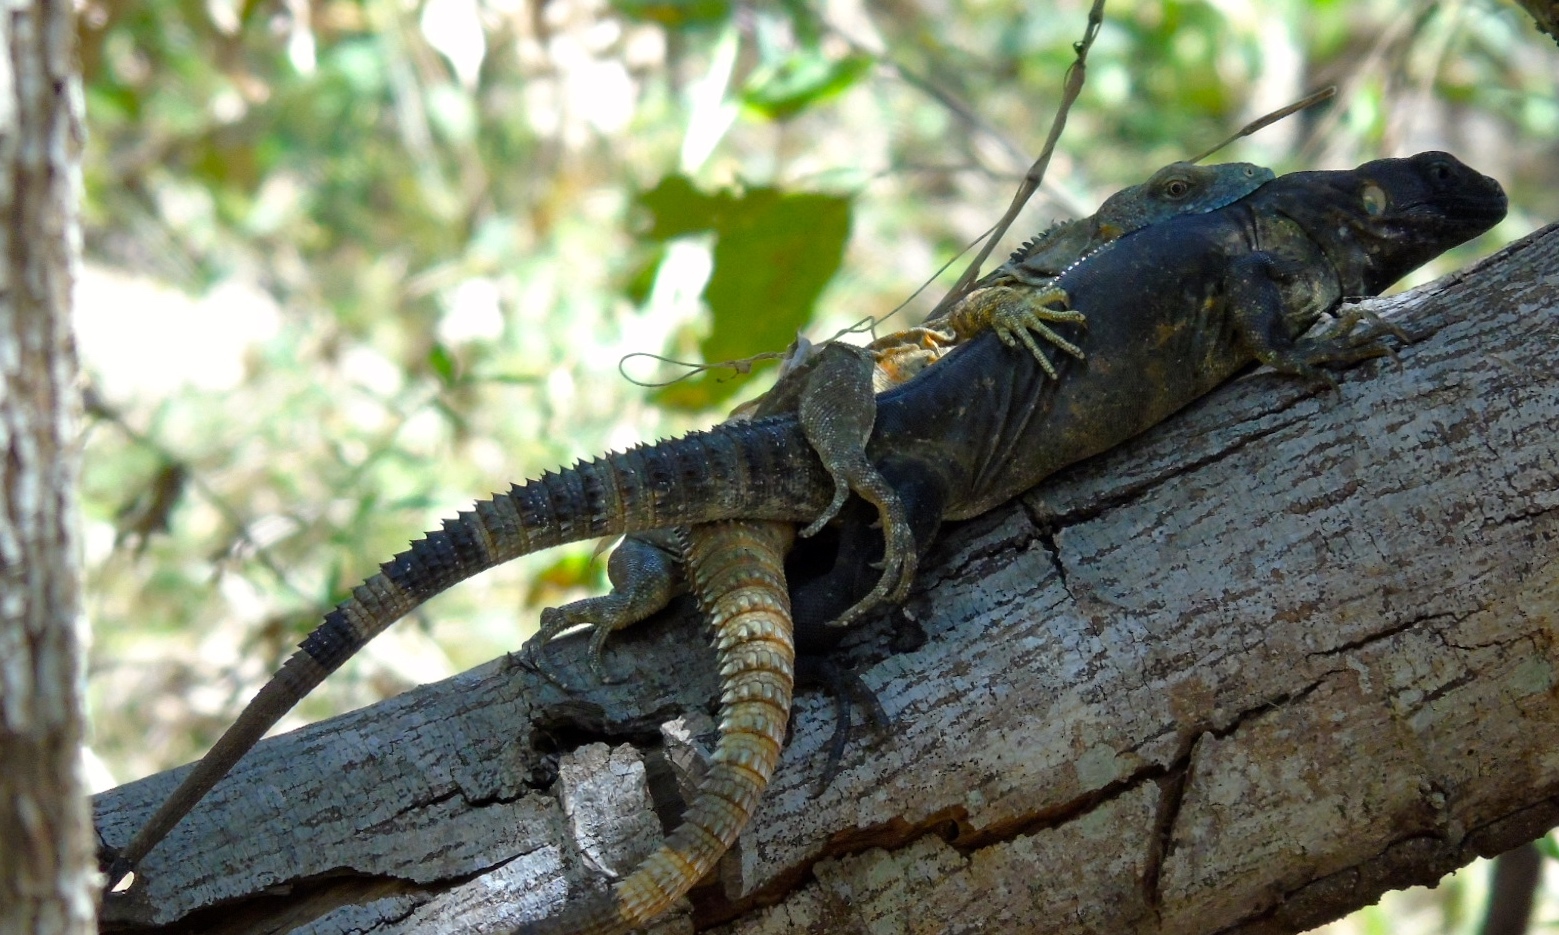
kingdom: Animalia
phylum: Chordata
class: Squamata
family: Iguanidae
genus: Ctenosaura
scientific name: Ctenosaura pectinata
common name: Guerreran spiny-tailed iguana
